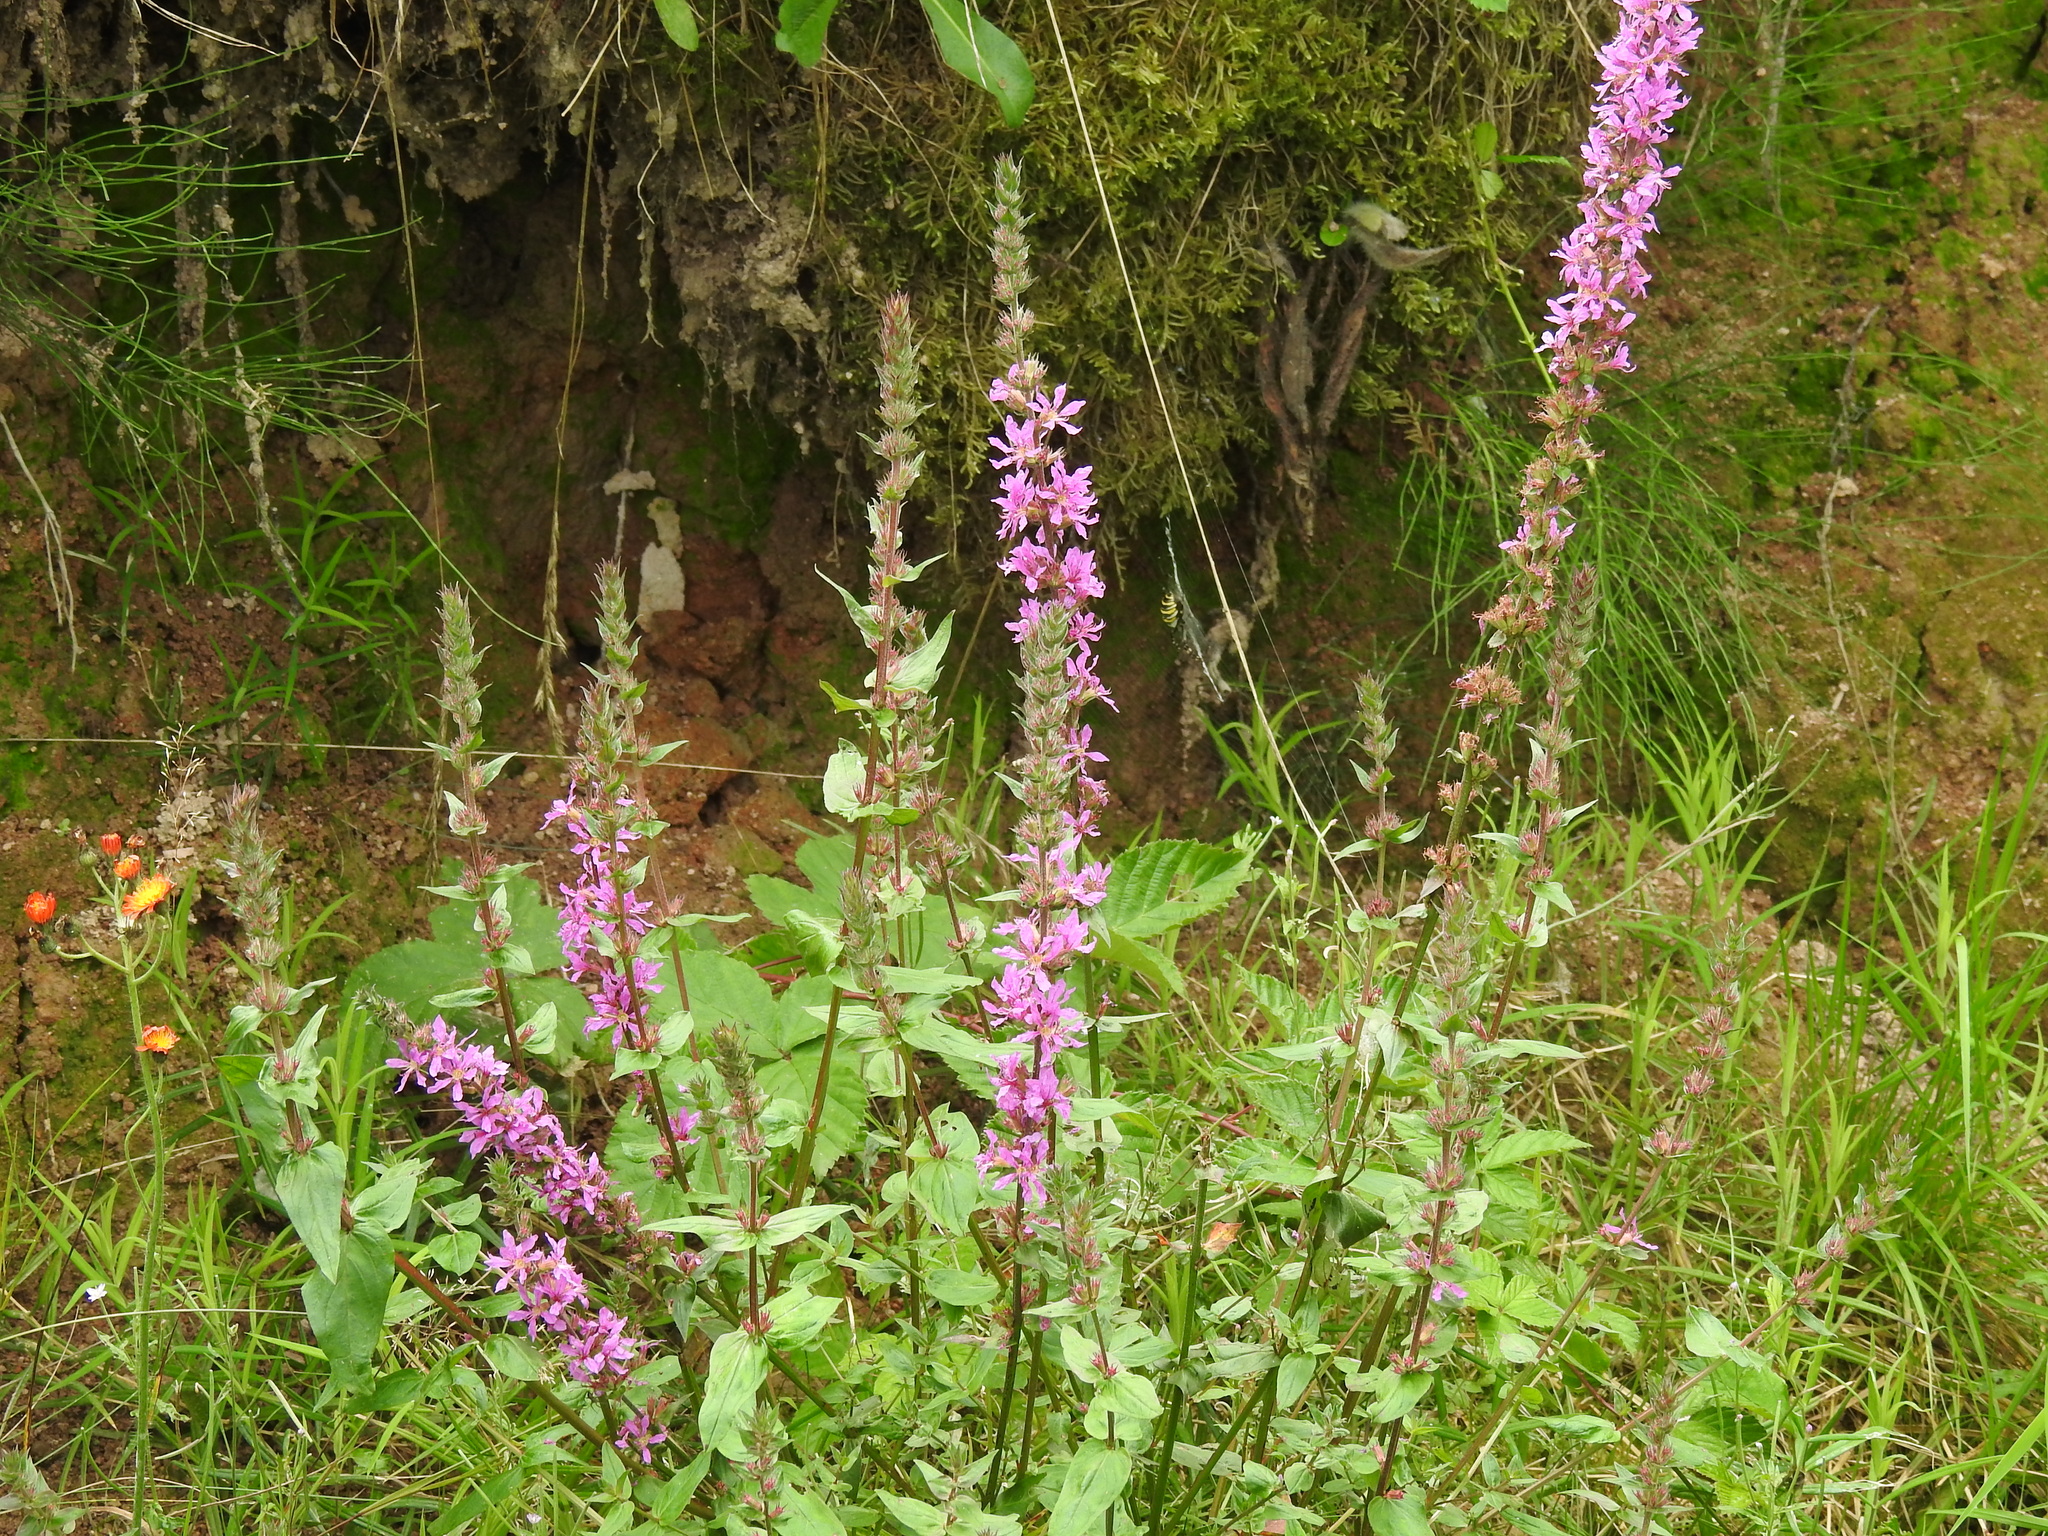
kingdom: Plantae
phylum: Tracheophyta
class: Magnoliopsida
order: Myrtales
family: Lythraceae
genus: Lythrum
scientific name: Lythrum salicaria
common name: Purple loosestrife
